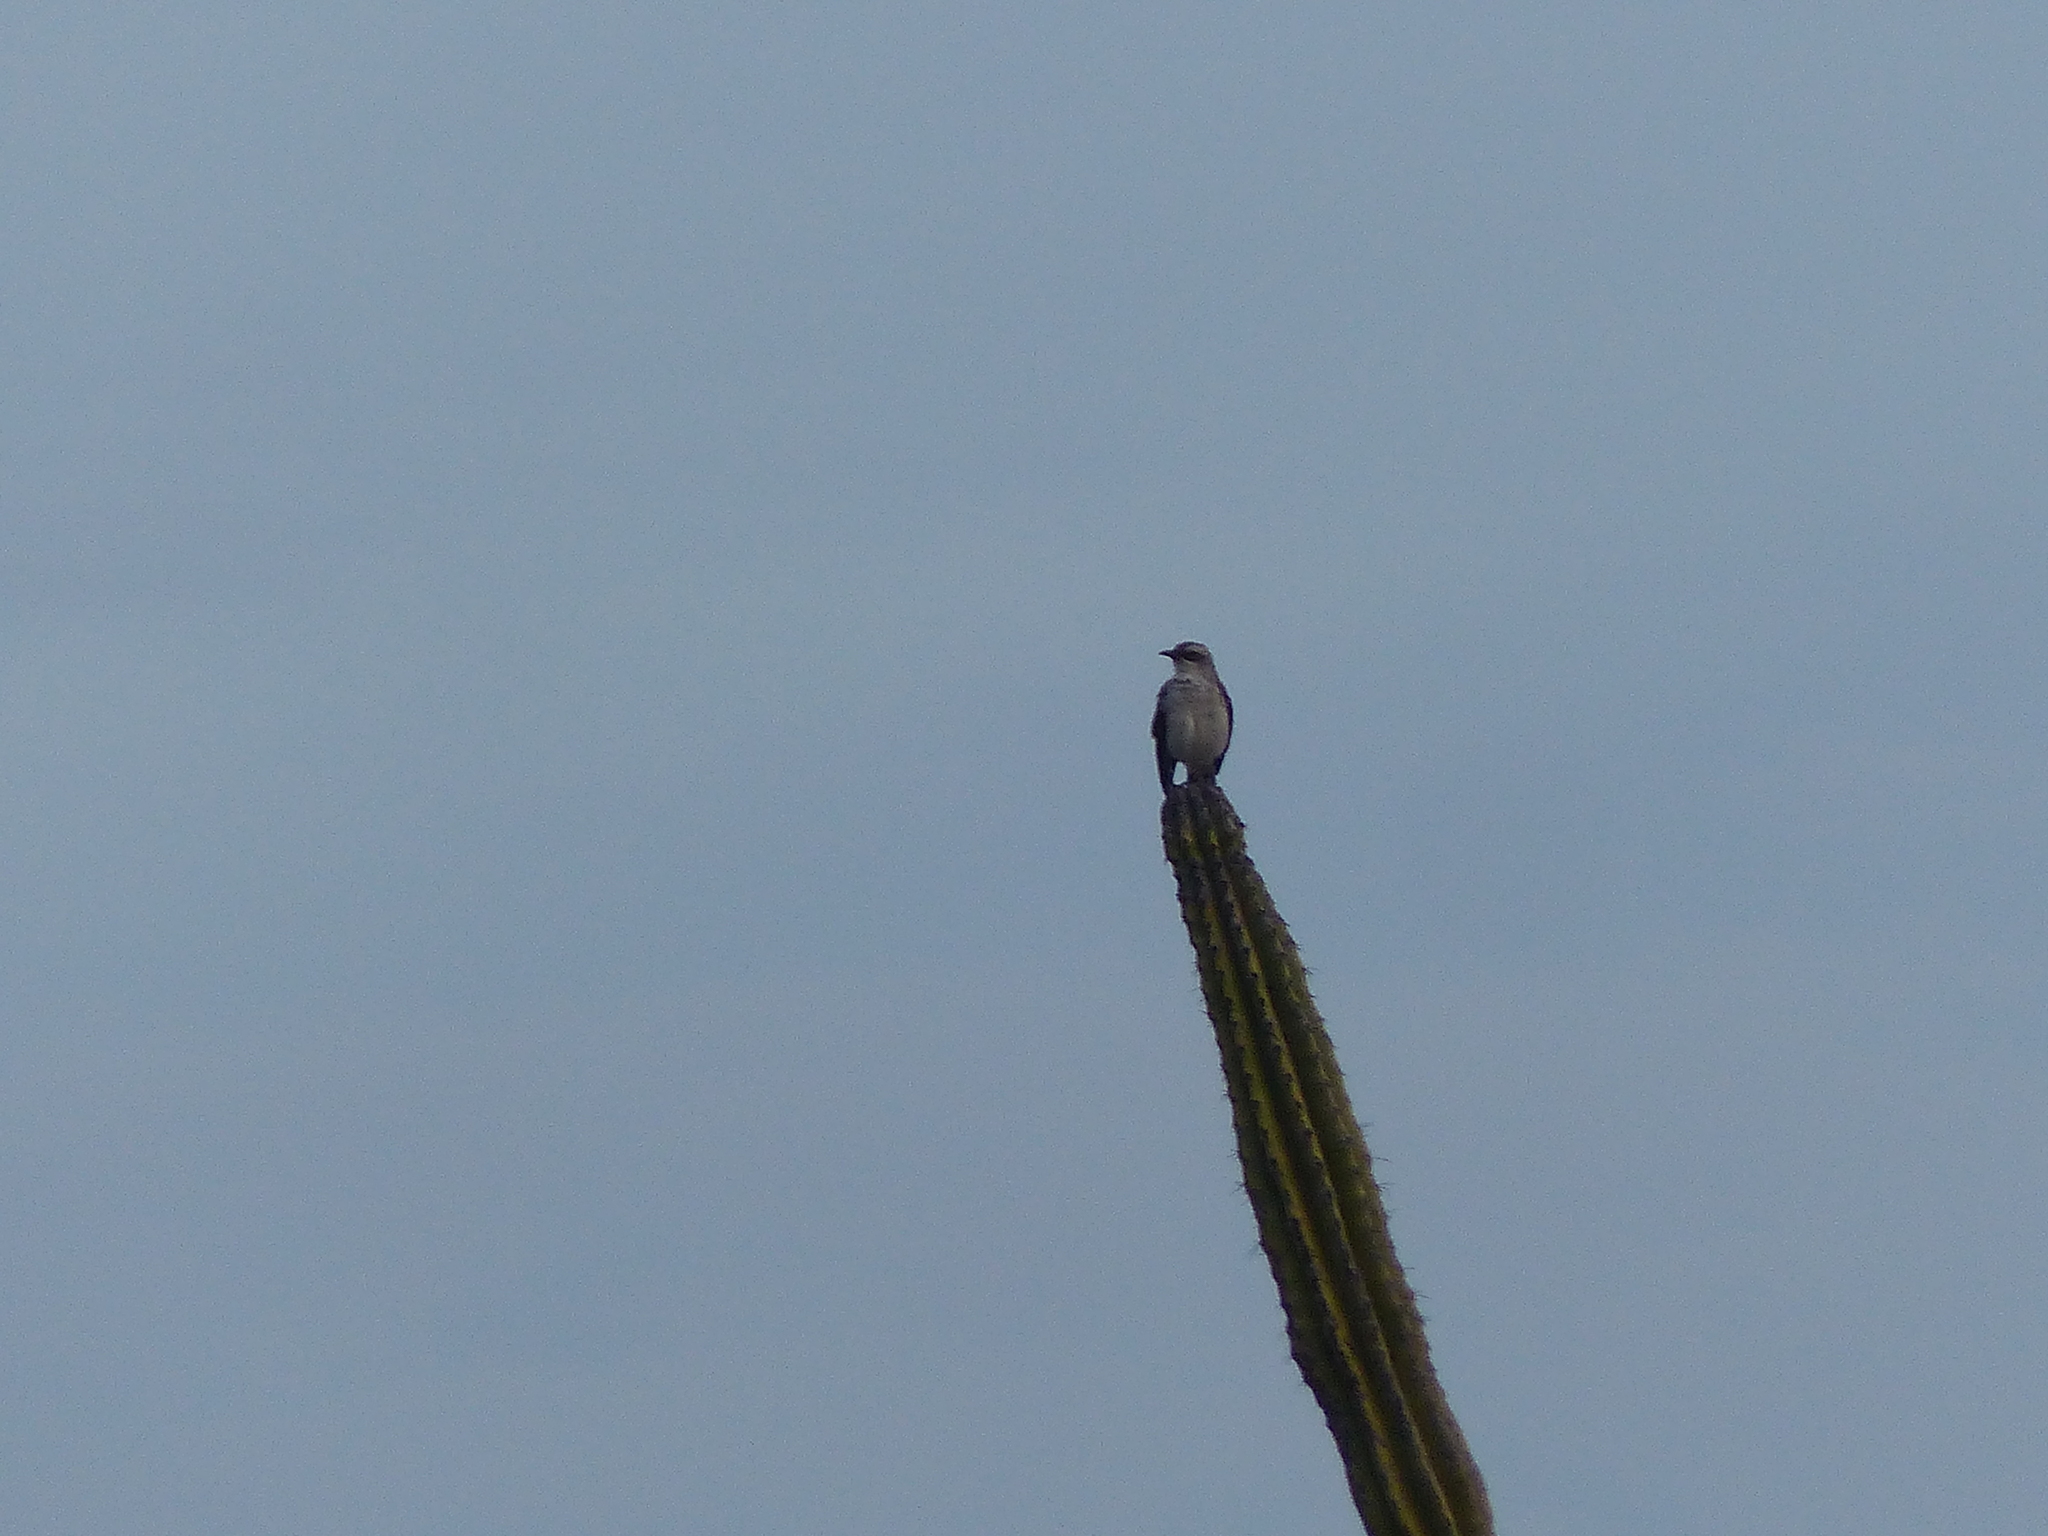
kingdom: Animalia
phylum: Chordata
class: Aves
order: Passeriformes
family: Mimidae
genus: Mimus
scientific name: Mimus gilvus
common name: Tropical mockingbird
